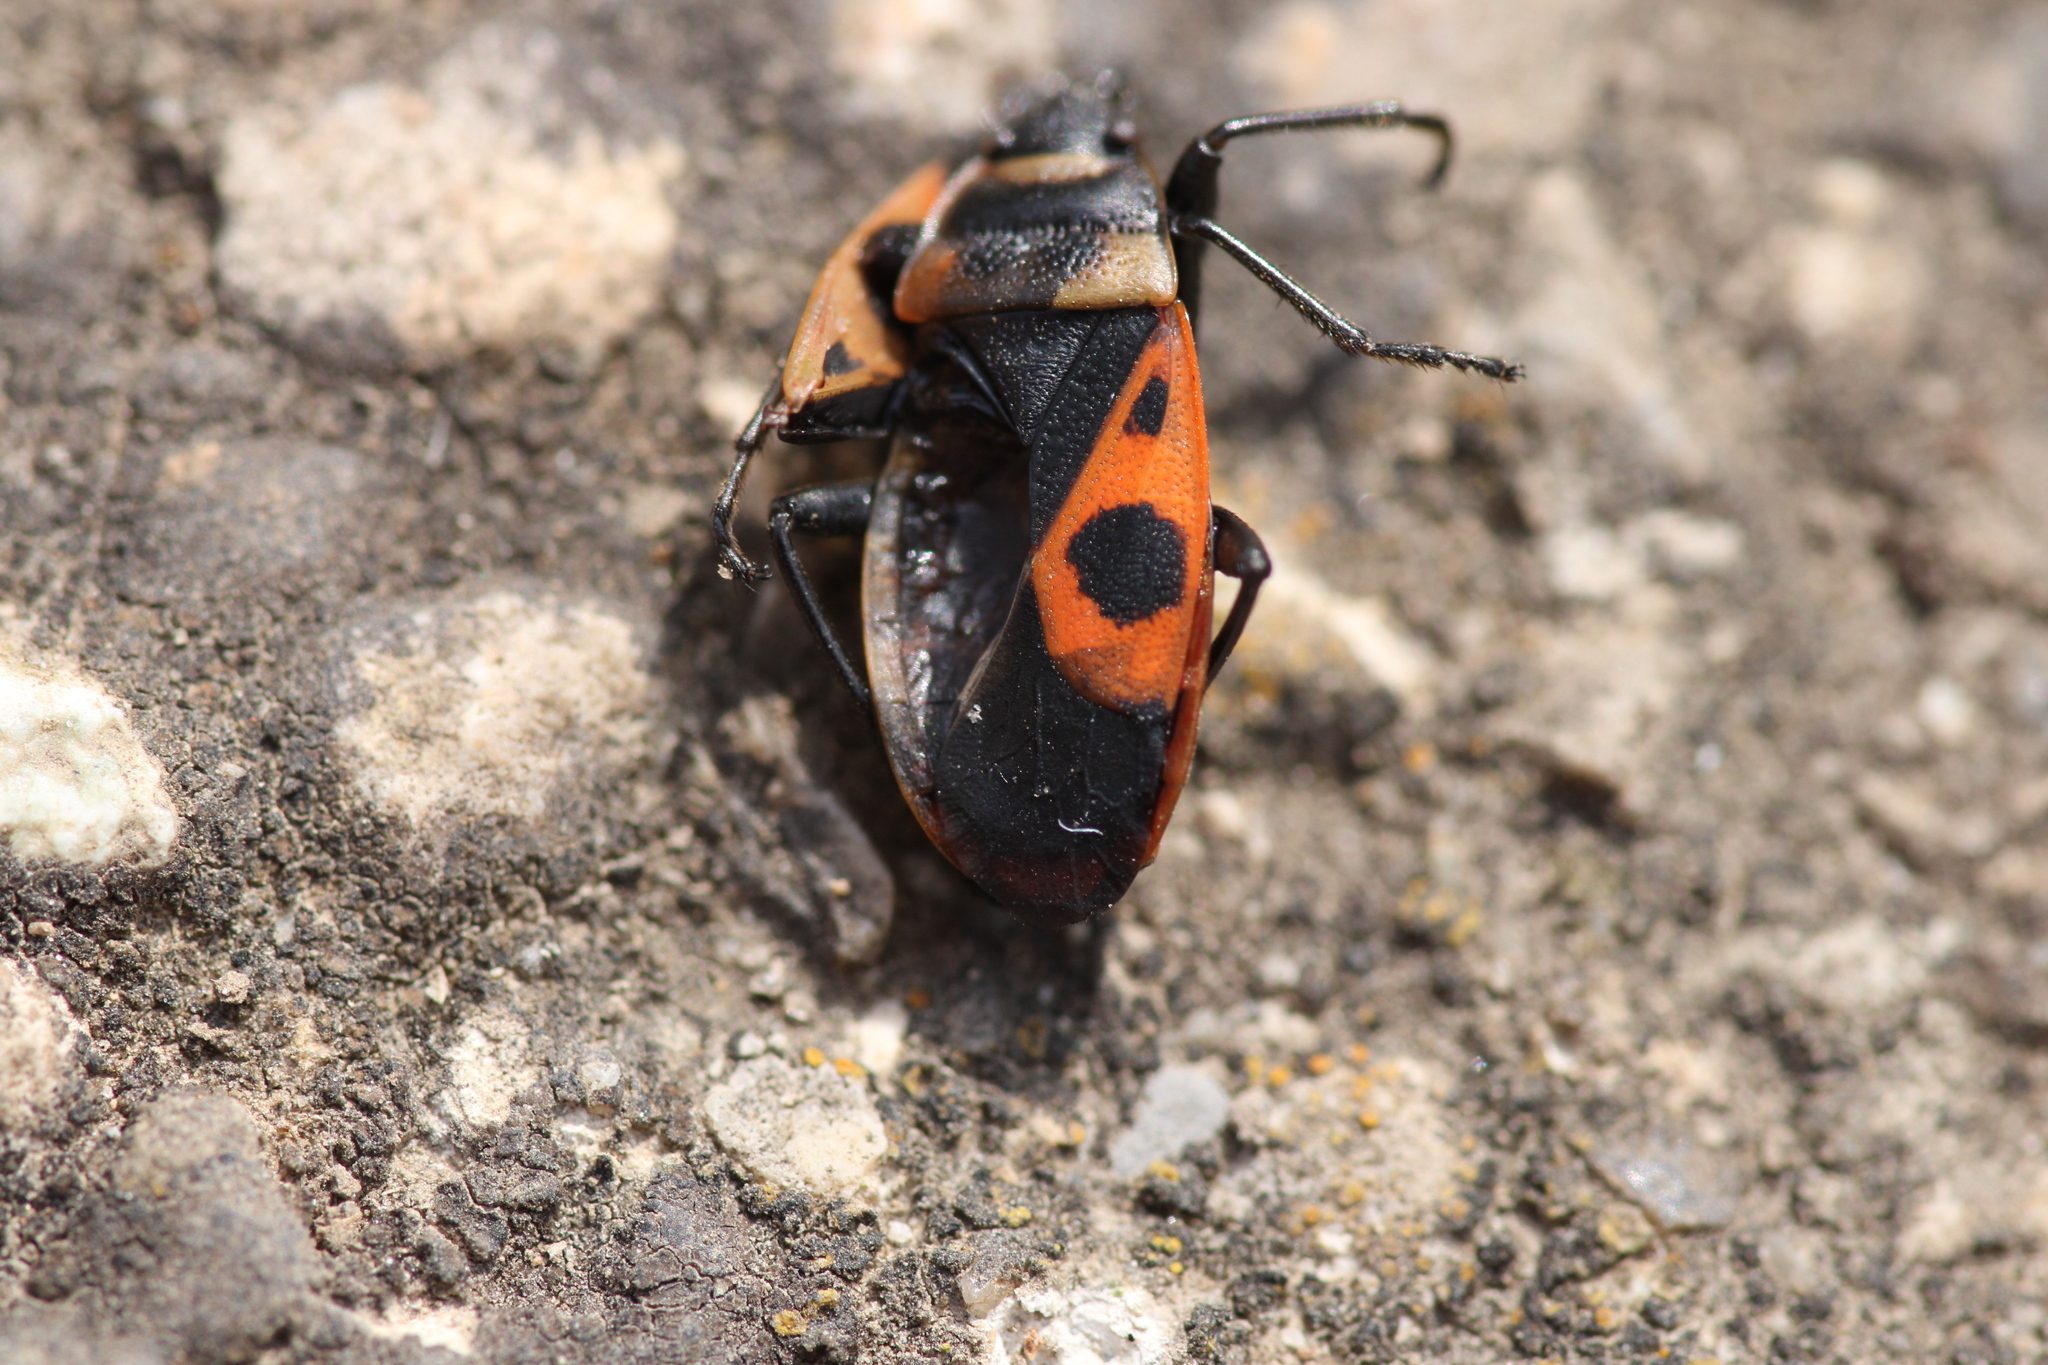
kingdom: Animalia
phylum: Arthropoda
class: Insecta
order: Hemiptera
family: Pyrrhocoridae
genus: Pyrrhocoris
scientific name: Pyrrhocoris apterus
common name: Firebug
